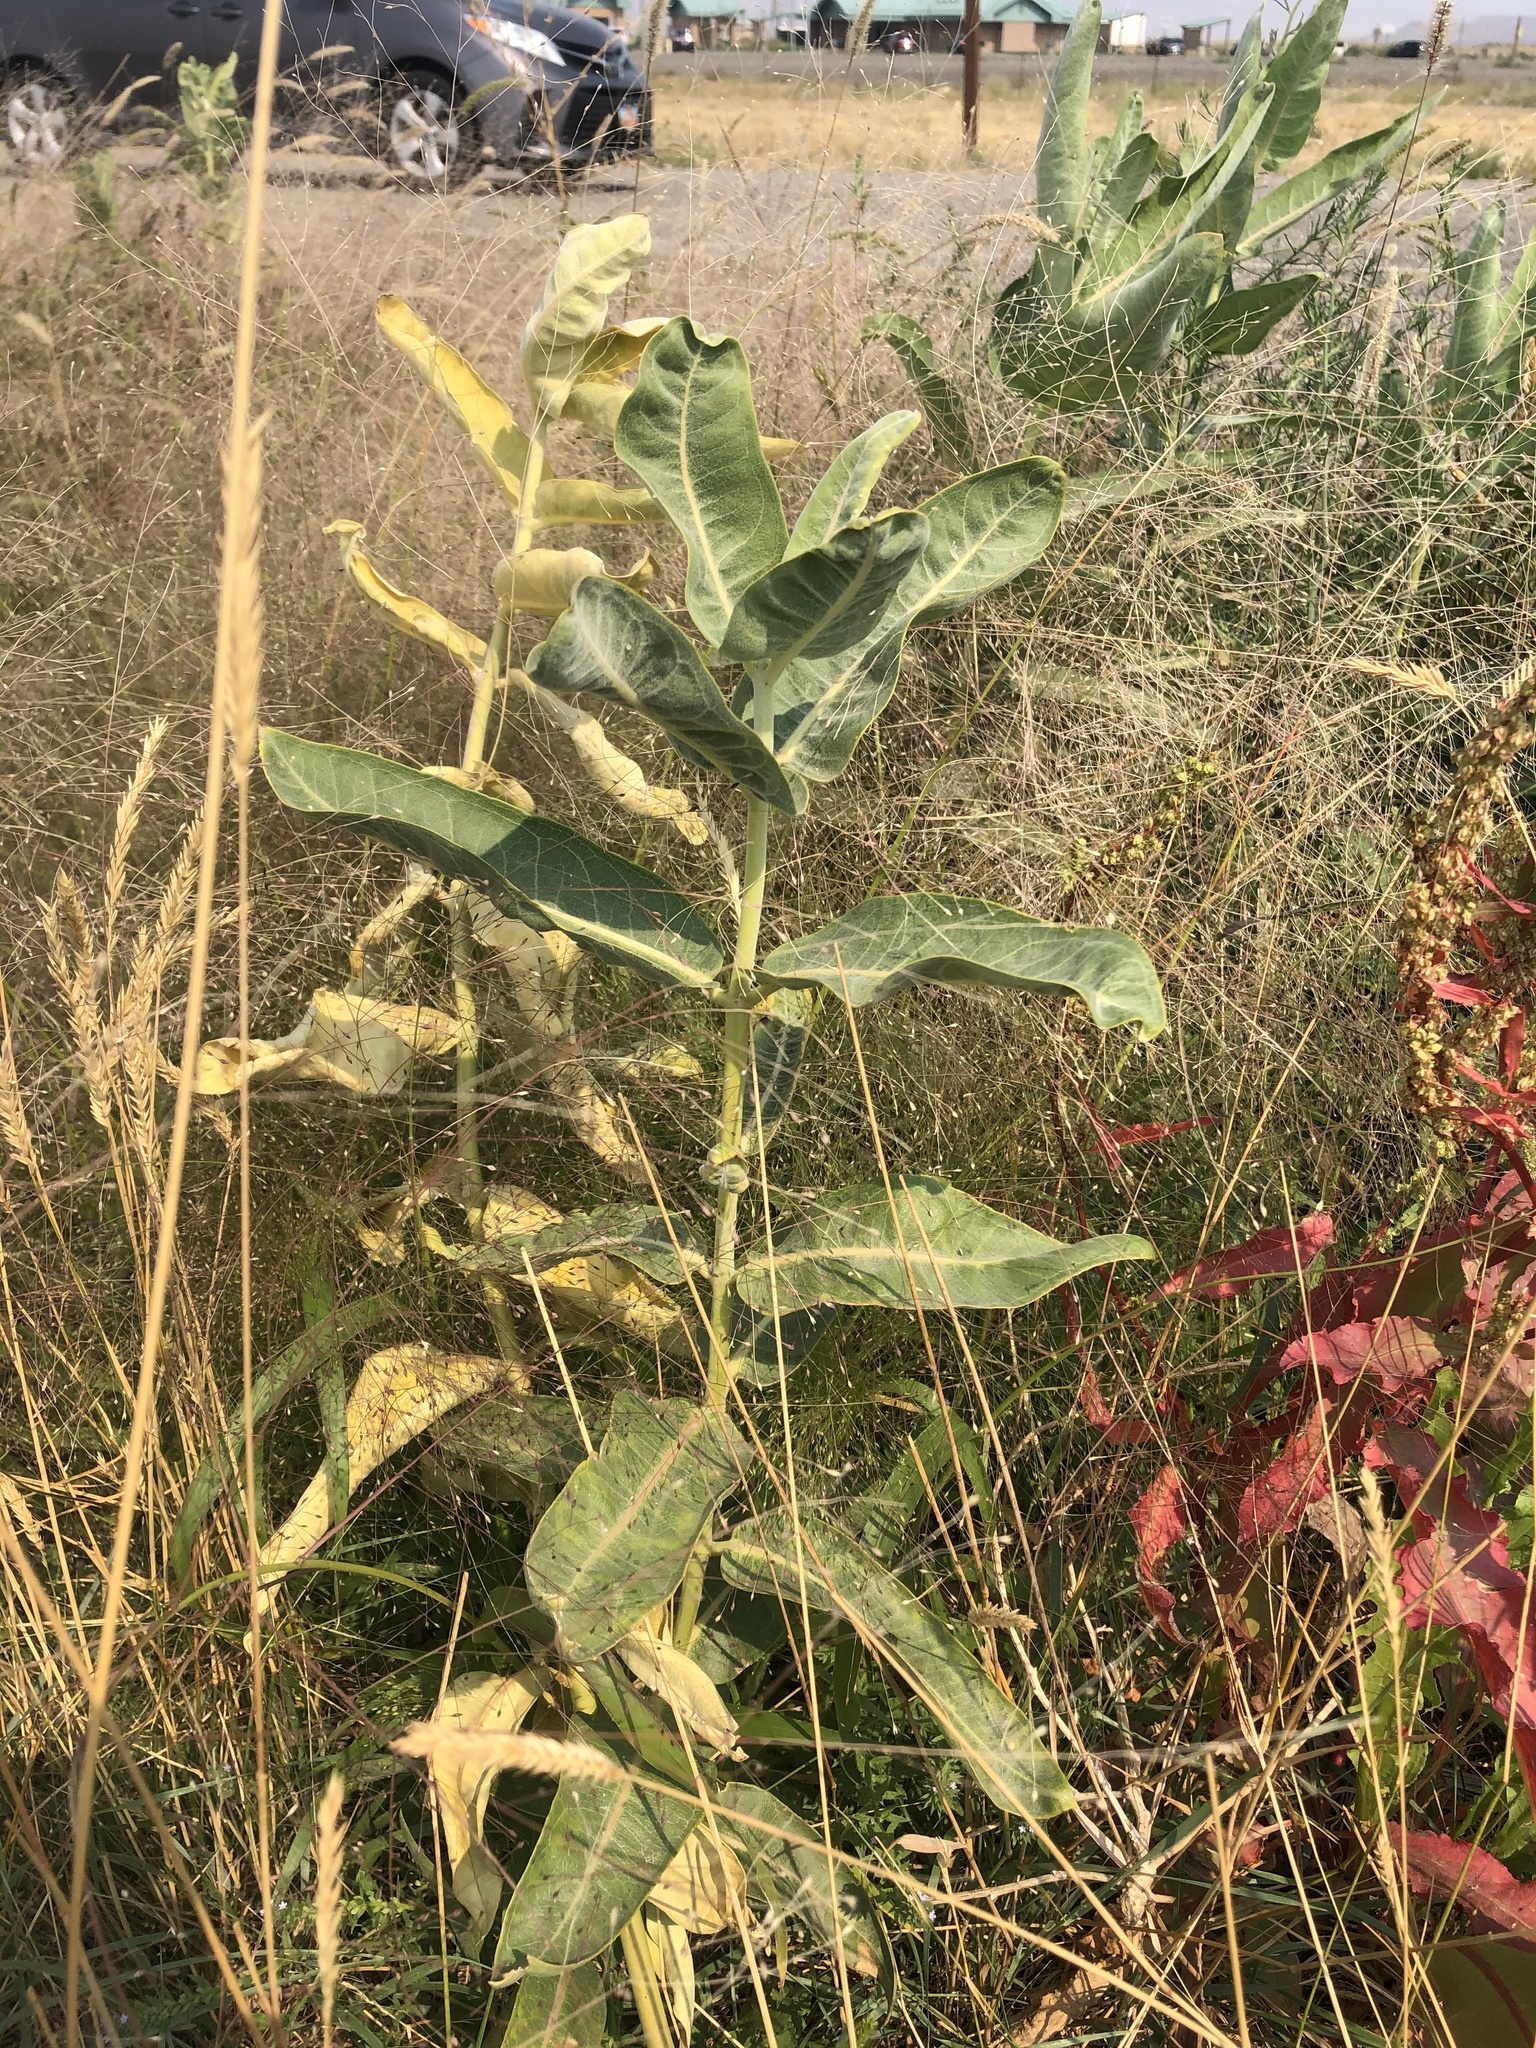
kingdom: Plantae
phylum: Tracheophyta
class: Magnoliopsida
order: Gentianales
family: Apocynaceae
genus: Asclepias
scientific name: Asclepias speciosa
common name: Showy milkweed
